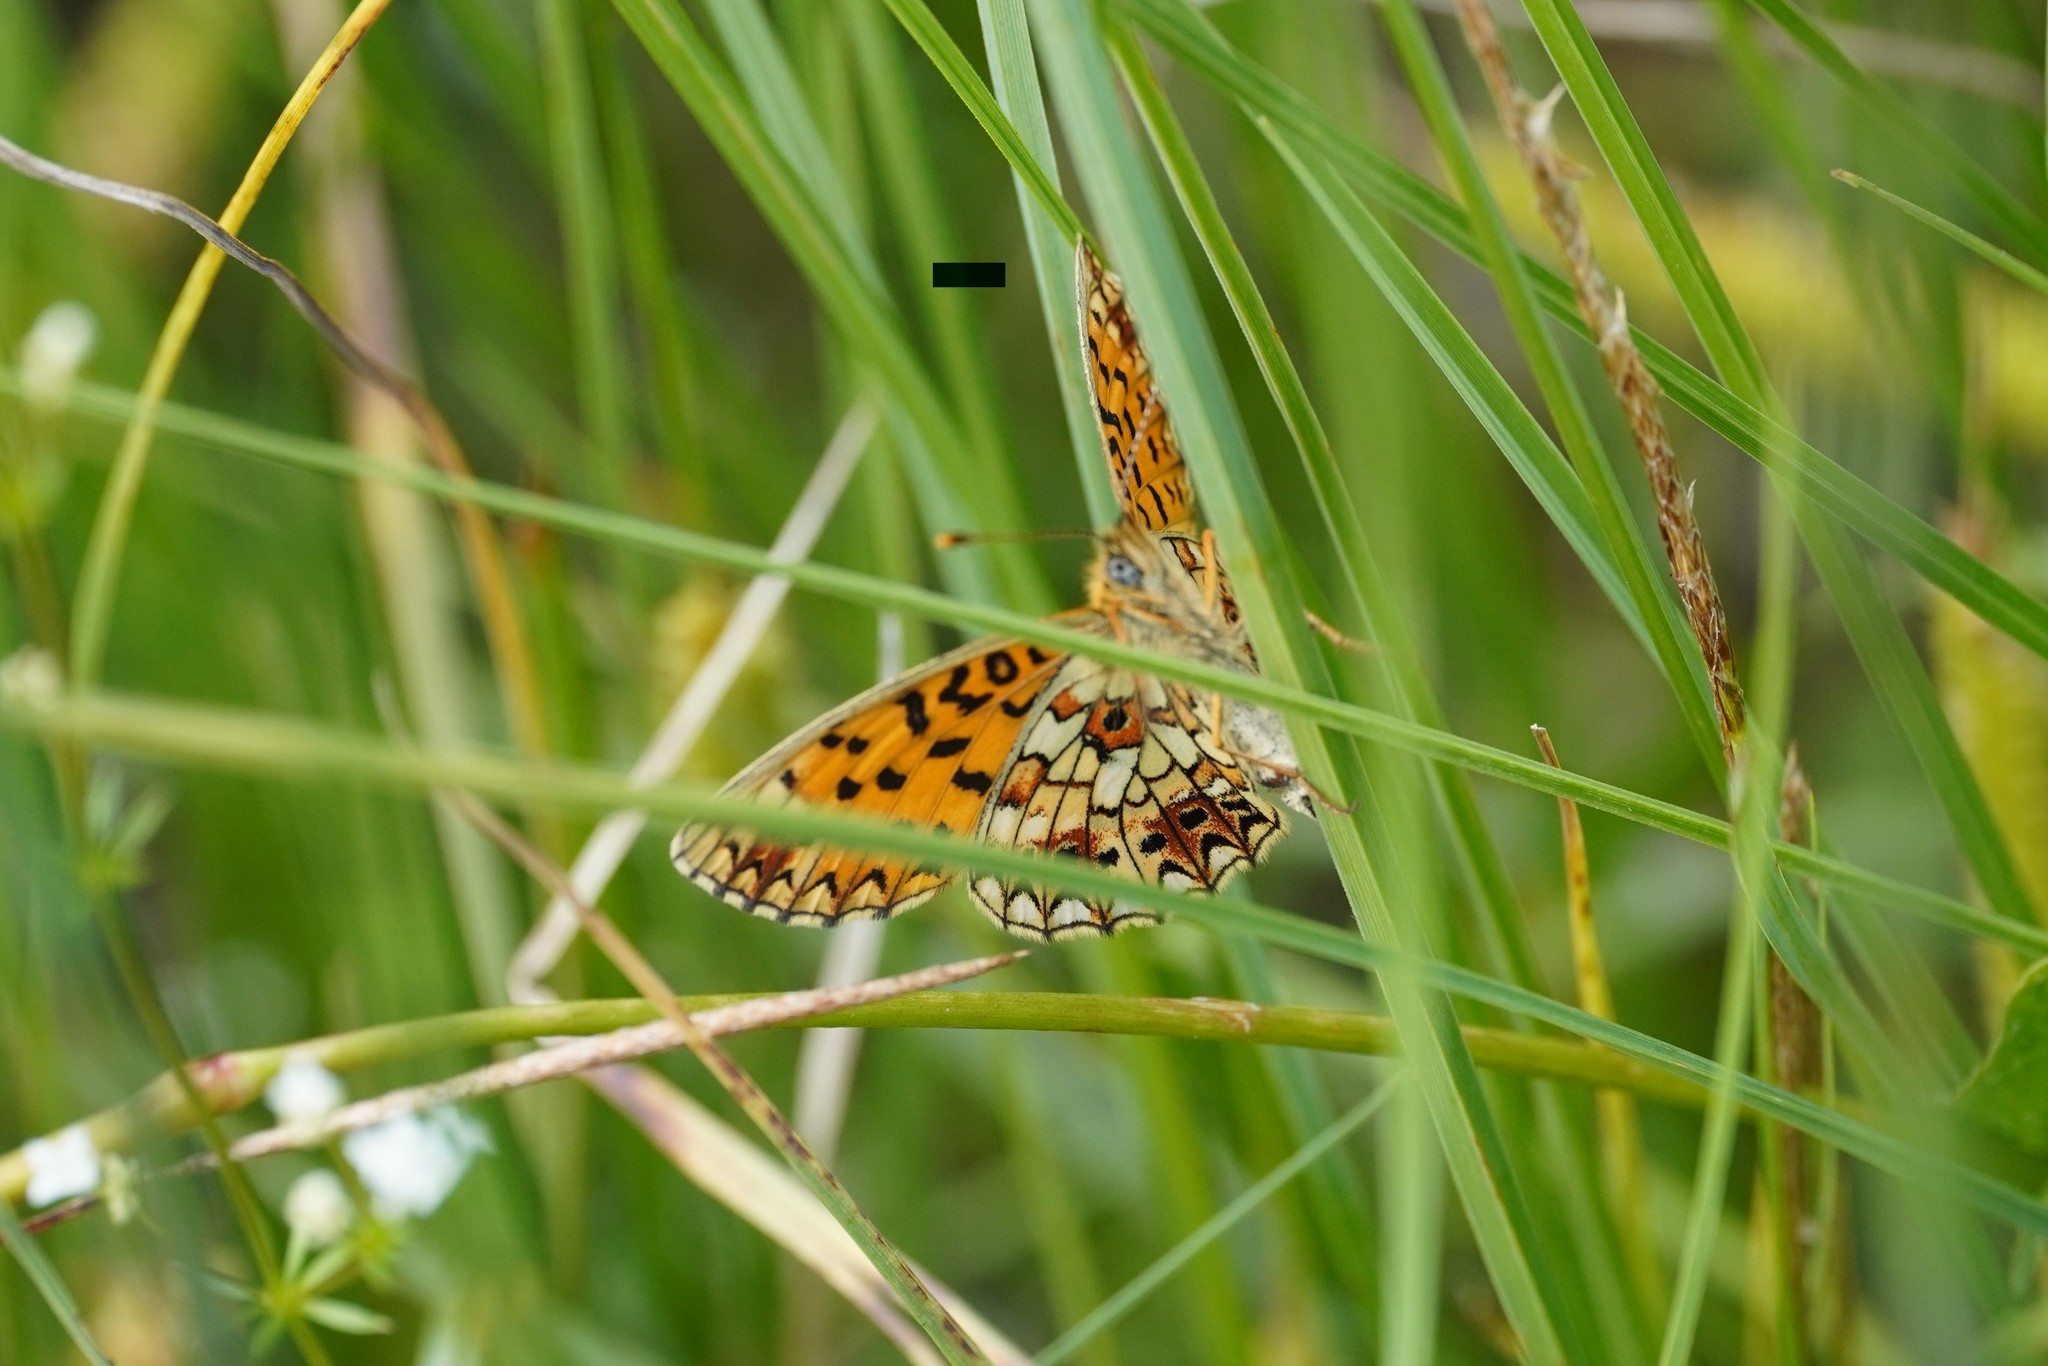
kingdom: Animalia
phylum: Arthropoda
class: Insecta
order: Lepidoptera
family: Nymphalidae
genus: Boloria
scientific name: Boloria selene
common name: Small pearl-bordered fritillary
